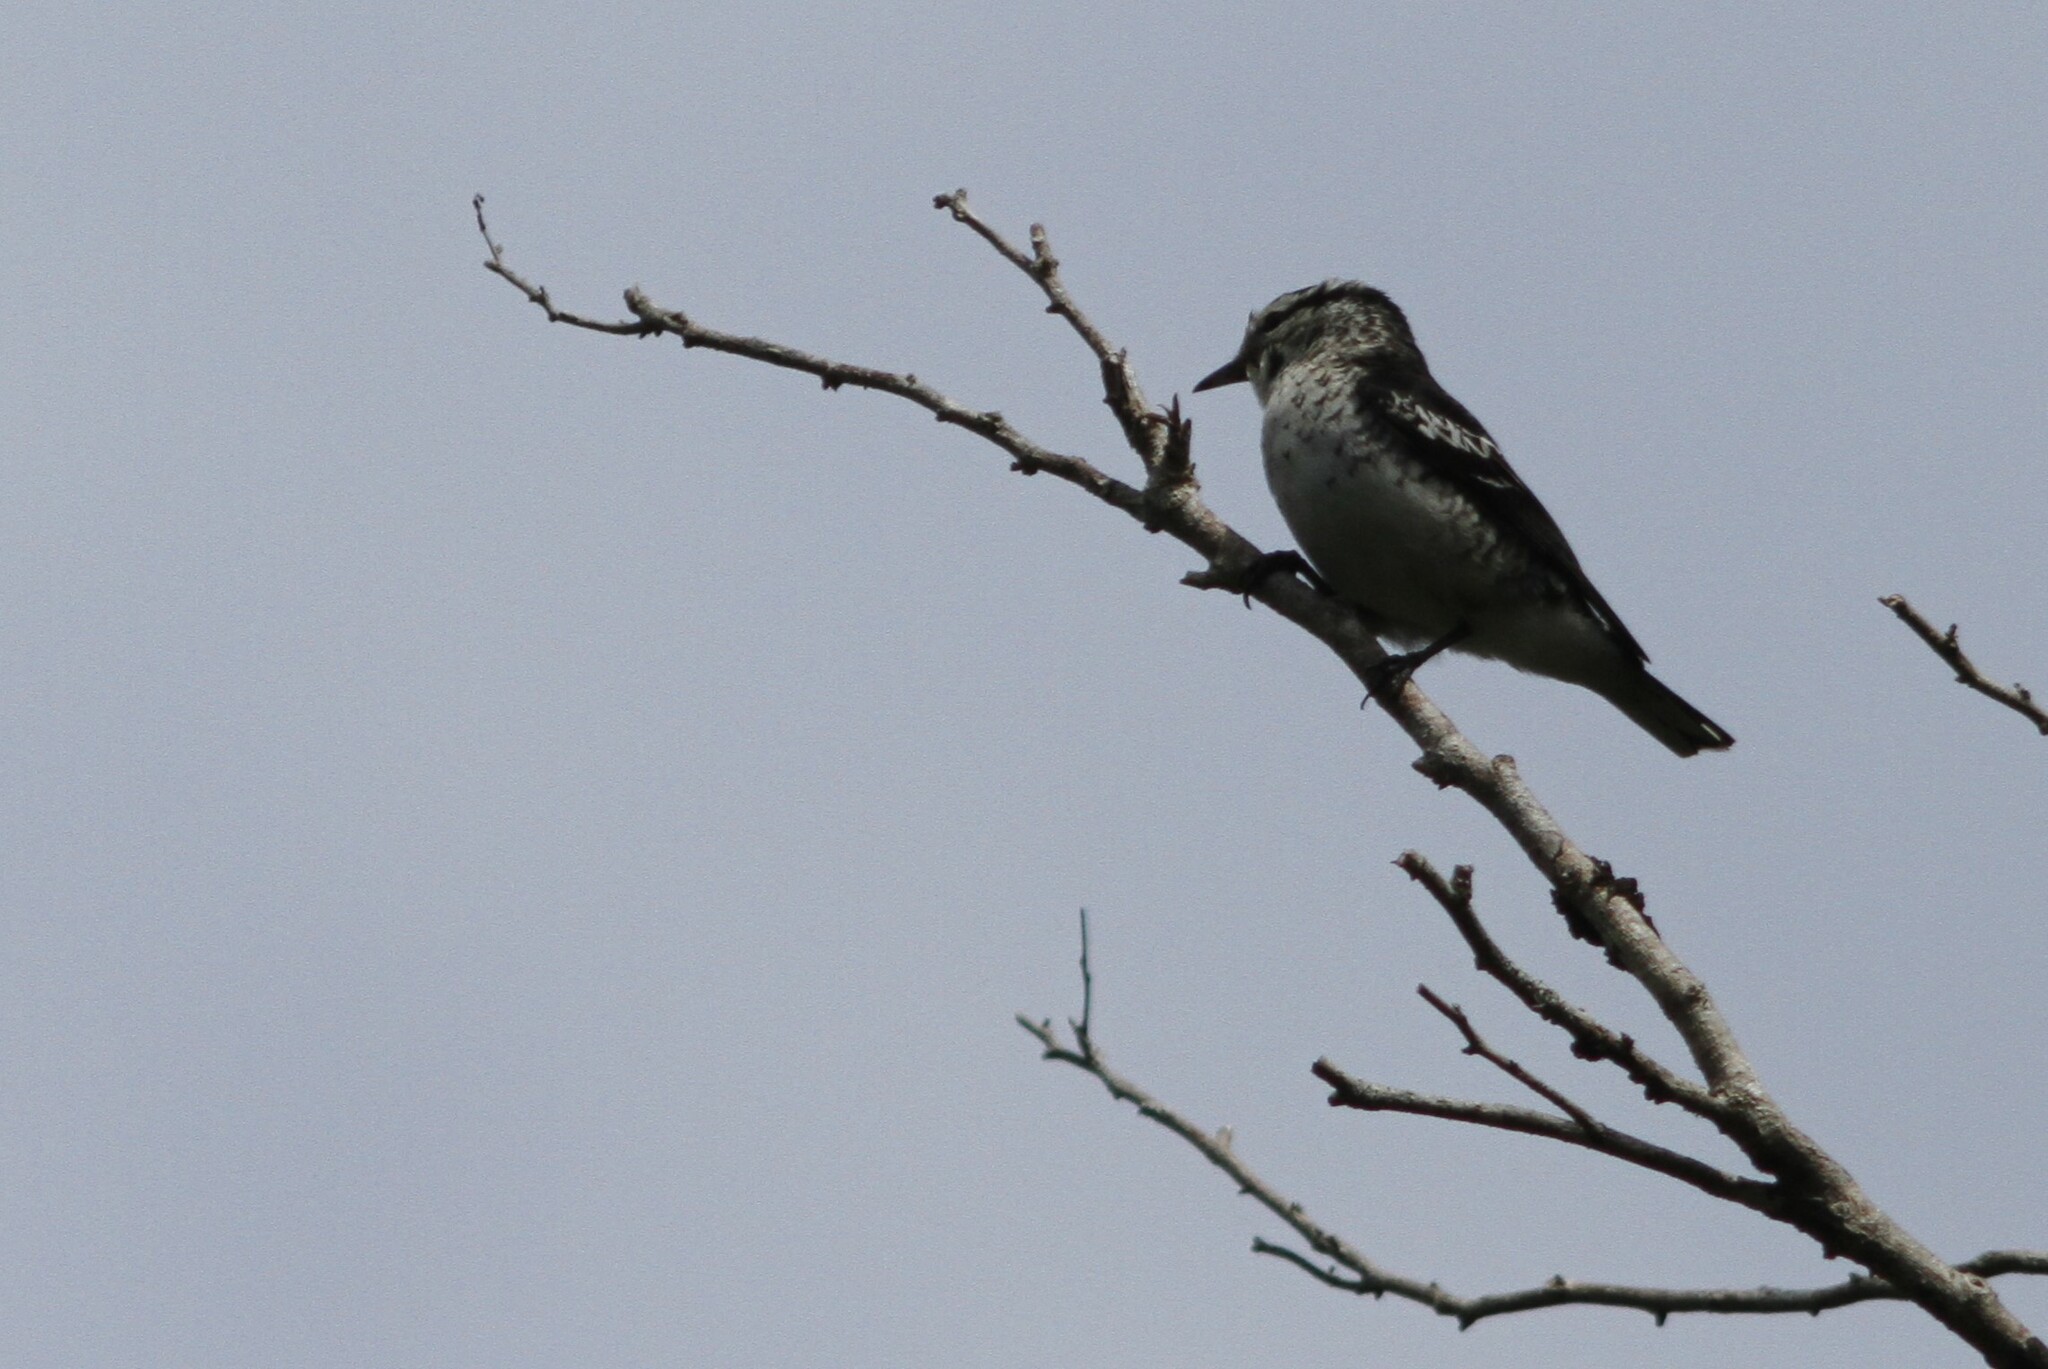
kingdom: Animalia
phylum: Chordata
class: Aves
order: Passeriformes
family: Campephagidae
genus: Lalage
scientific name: Lalage maculosa
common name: Polynesian triller
